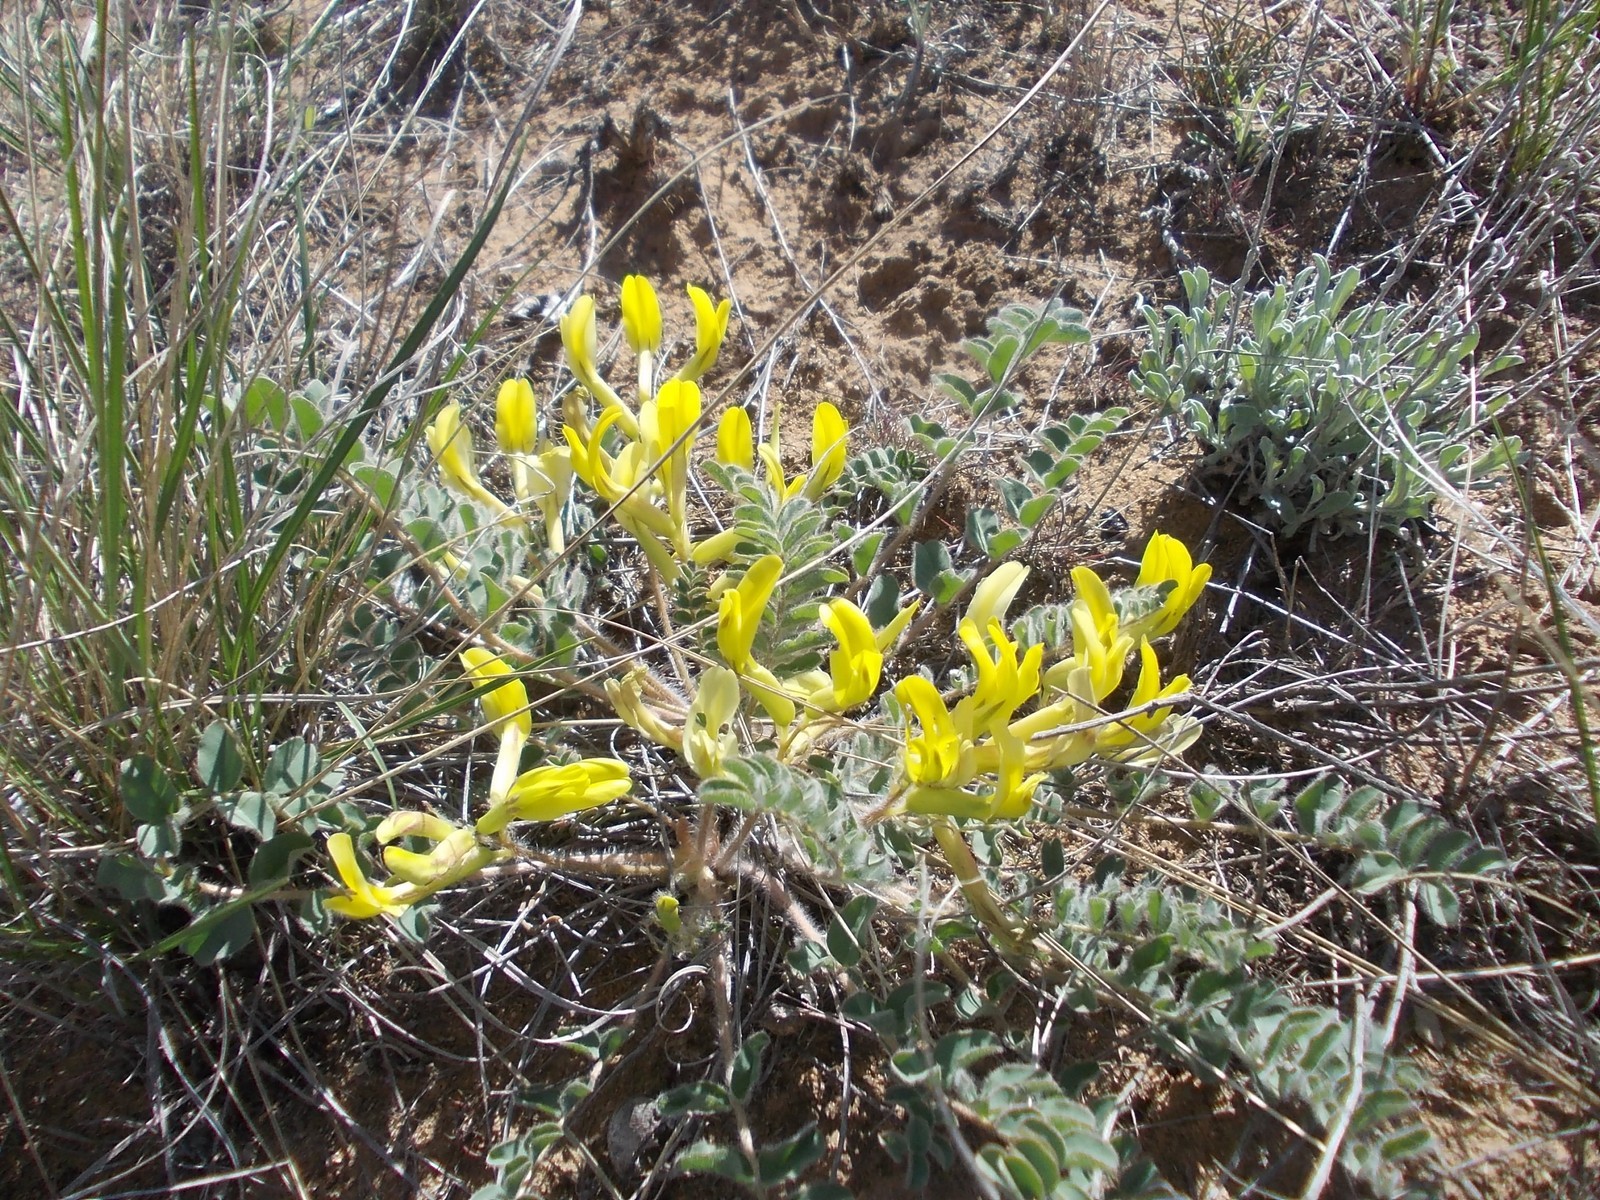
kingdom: Plantae
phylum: Tracheophyta
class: Magnoliopsida
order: Fabales
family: Fabaceae
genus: Astragalus
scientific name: Astragalus longipetalus
